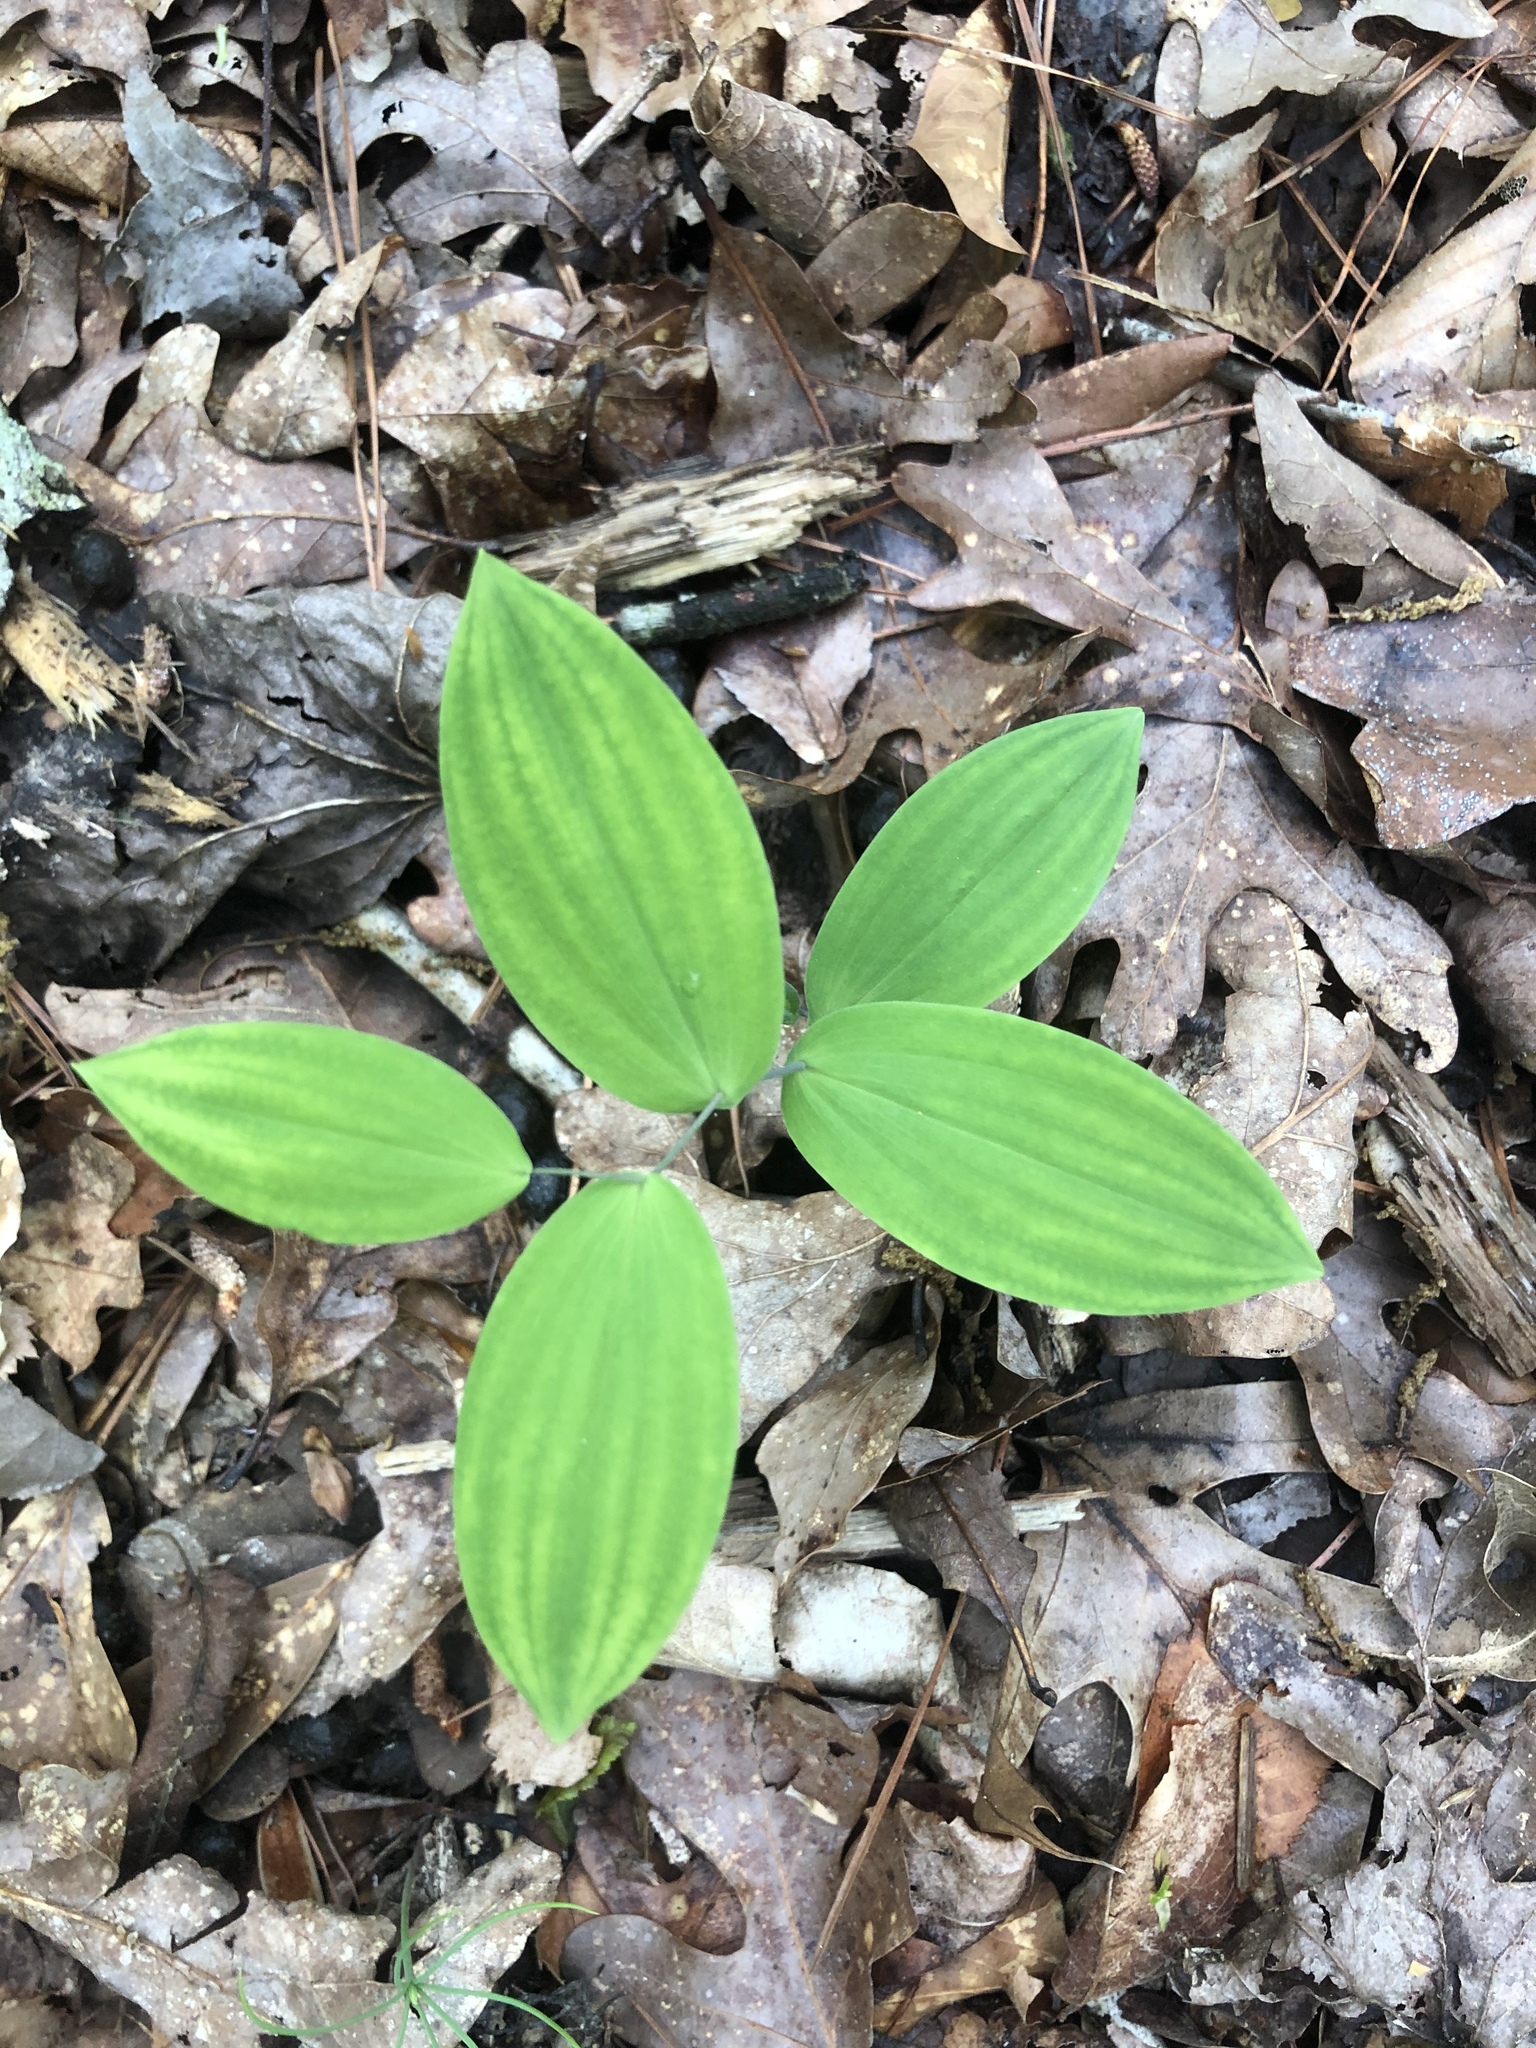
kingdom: Plantae
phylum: Tracheophyta
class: Liliopsida
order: Liliales
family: Colchicaceae
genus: Uvularia
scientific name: Uvularia perfoliata
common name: Perfoliate bellwort
